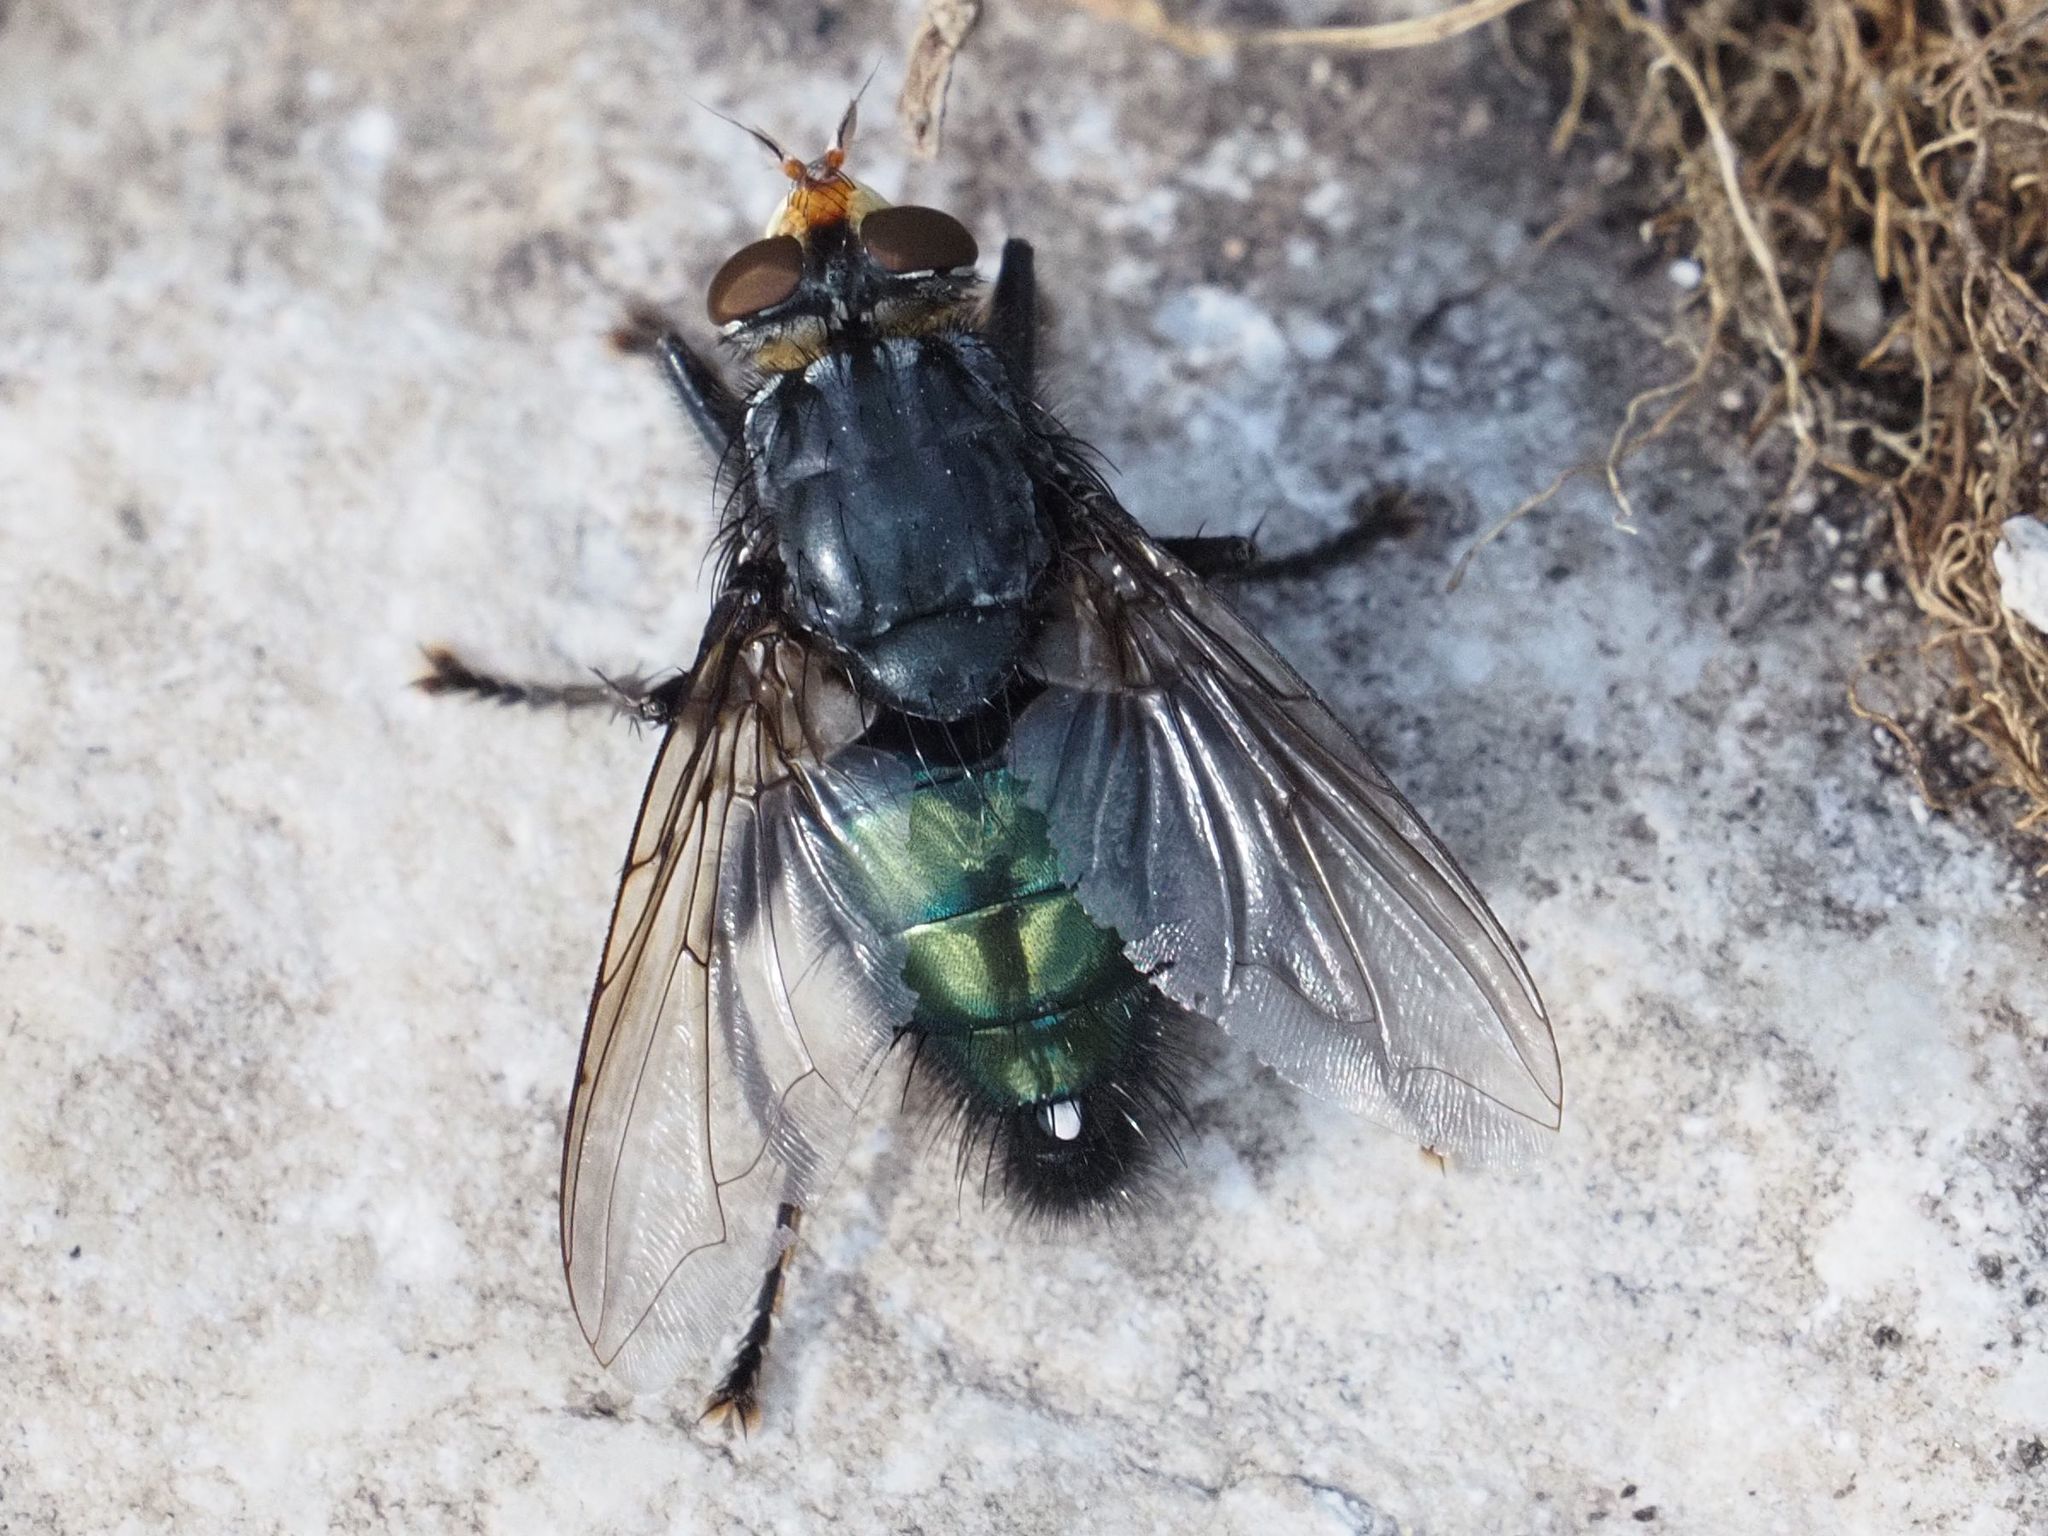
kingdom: Animalia
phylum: Arthropoda
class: Insecta
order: Diptera
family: Calliphoridae
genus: Cynomya
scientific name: Cynomya mortuorum
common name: Bluebottle blow fly
